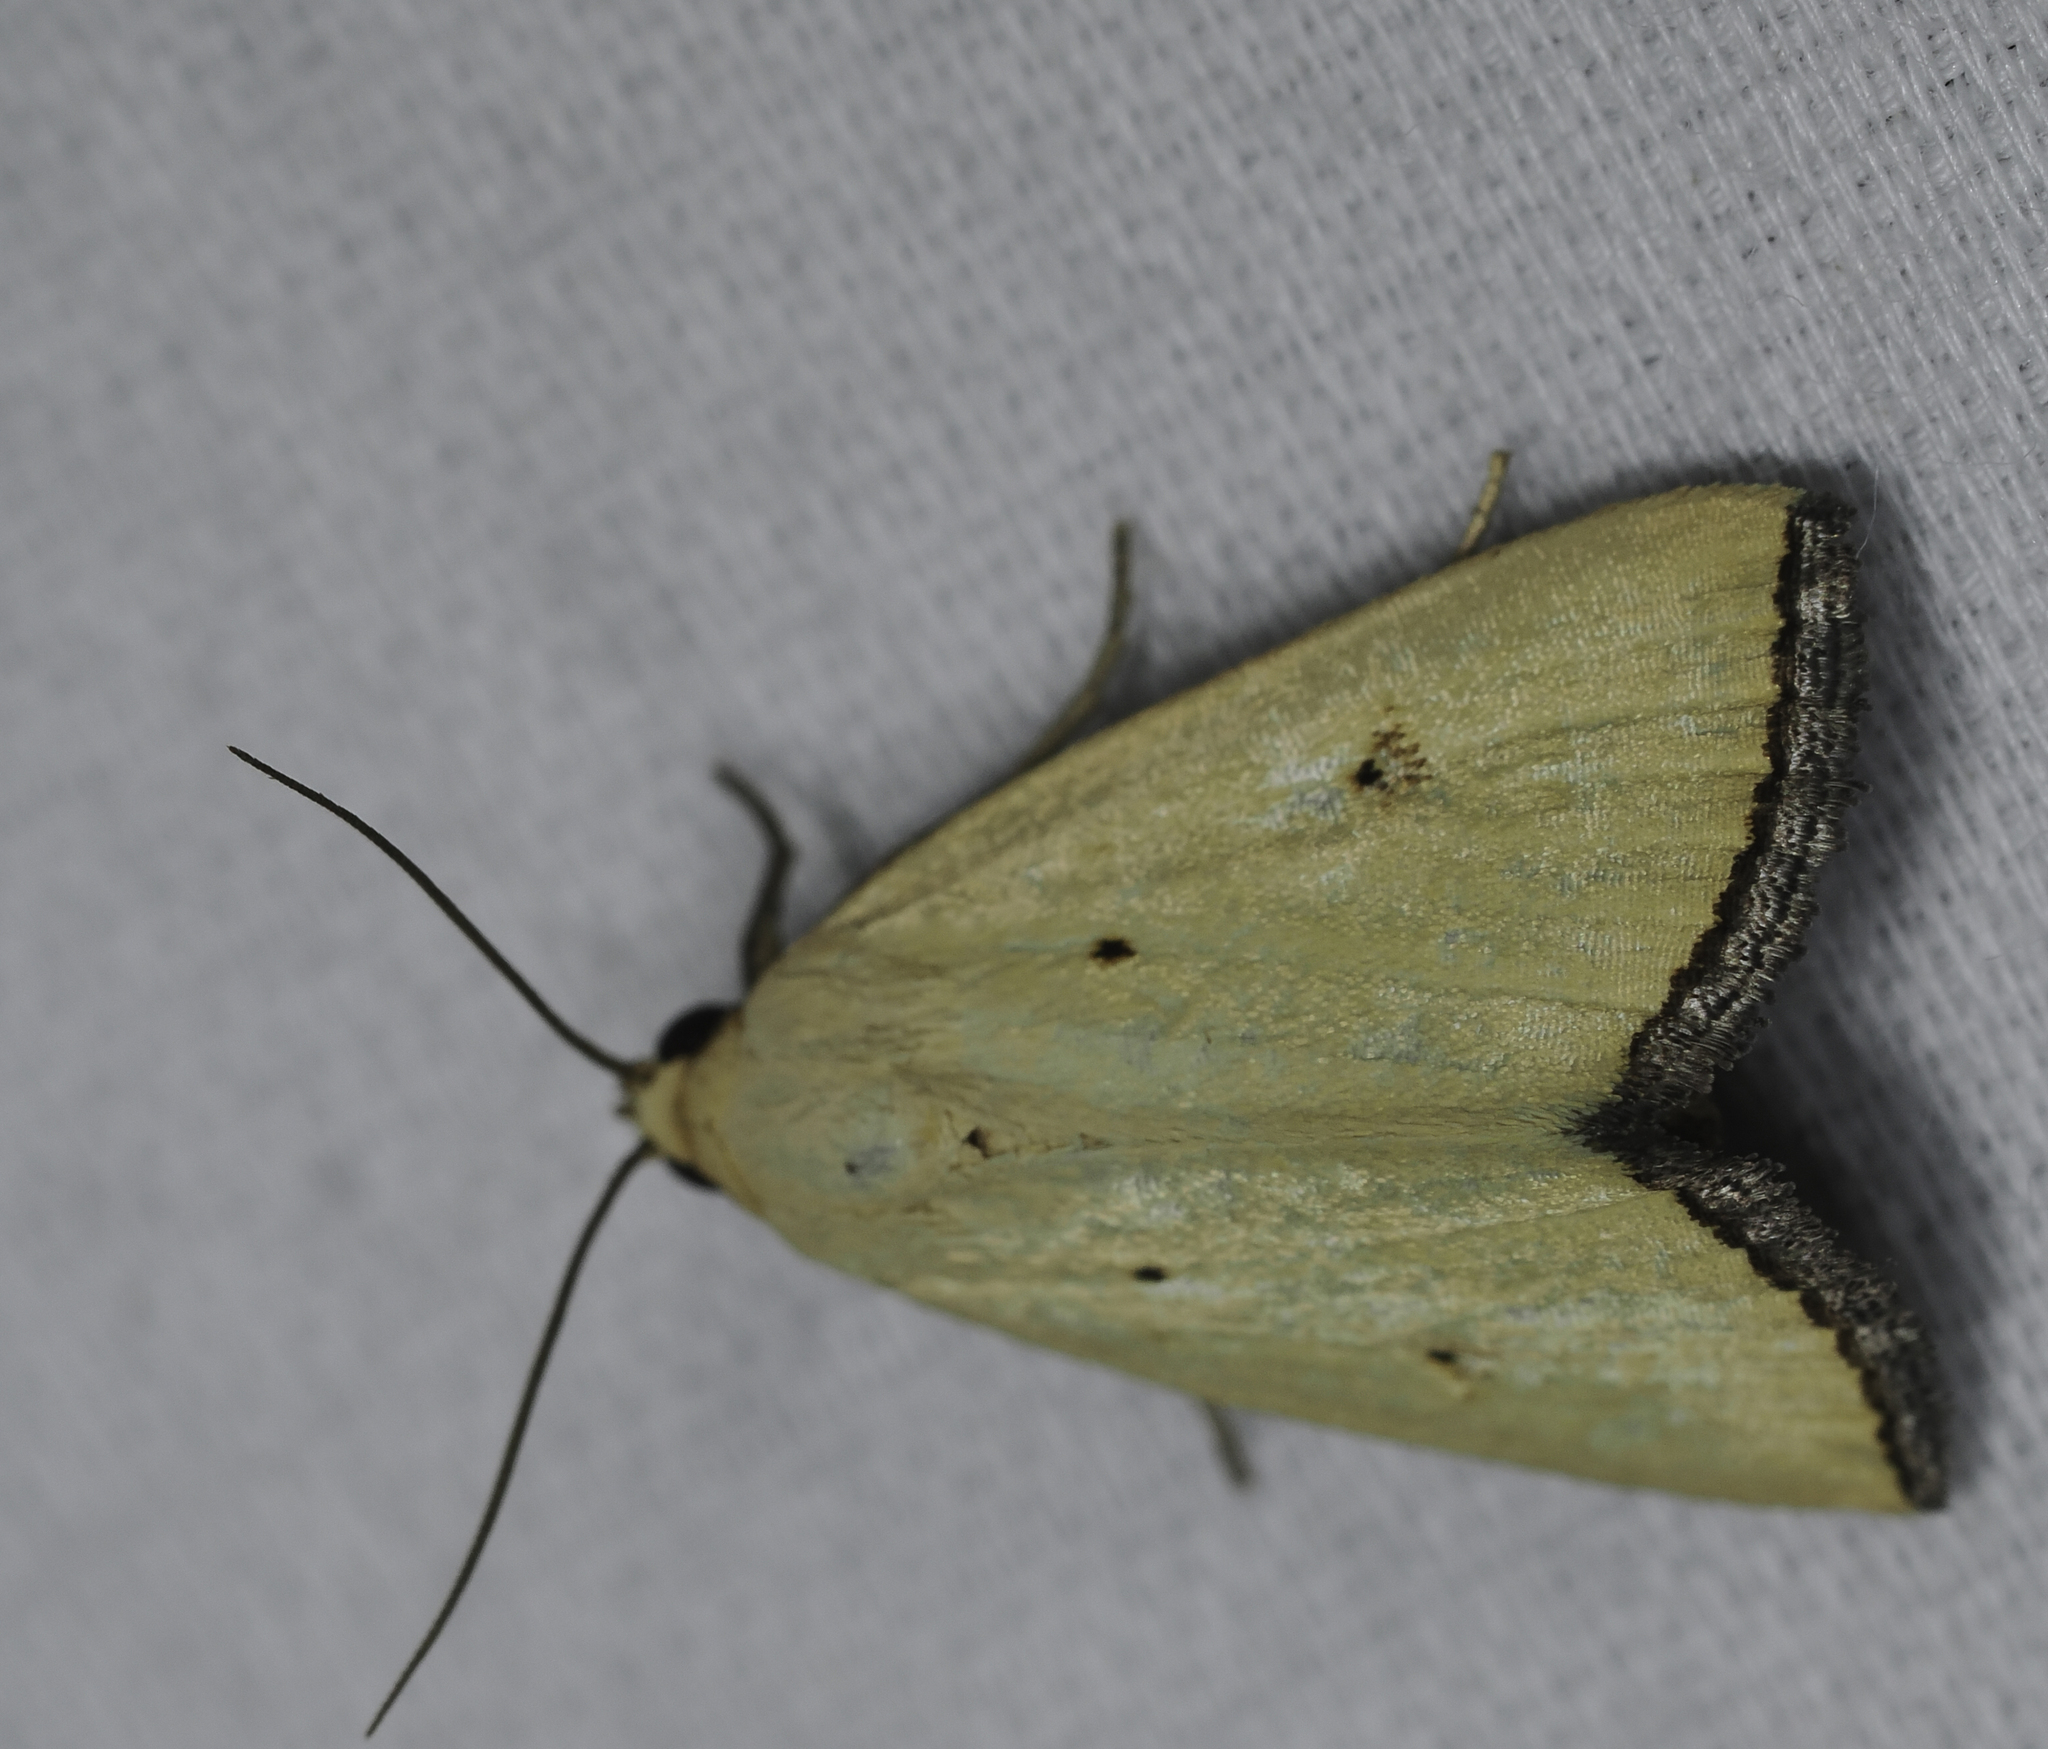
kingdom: Animalia
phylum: Arthropoda
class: Insecta
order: Lepidoptera
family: Noctuidae
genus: Marimatha
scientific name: Marimatha nigrofimbria
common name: Black-bordered lemon moth
